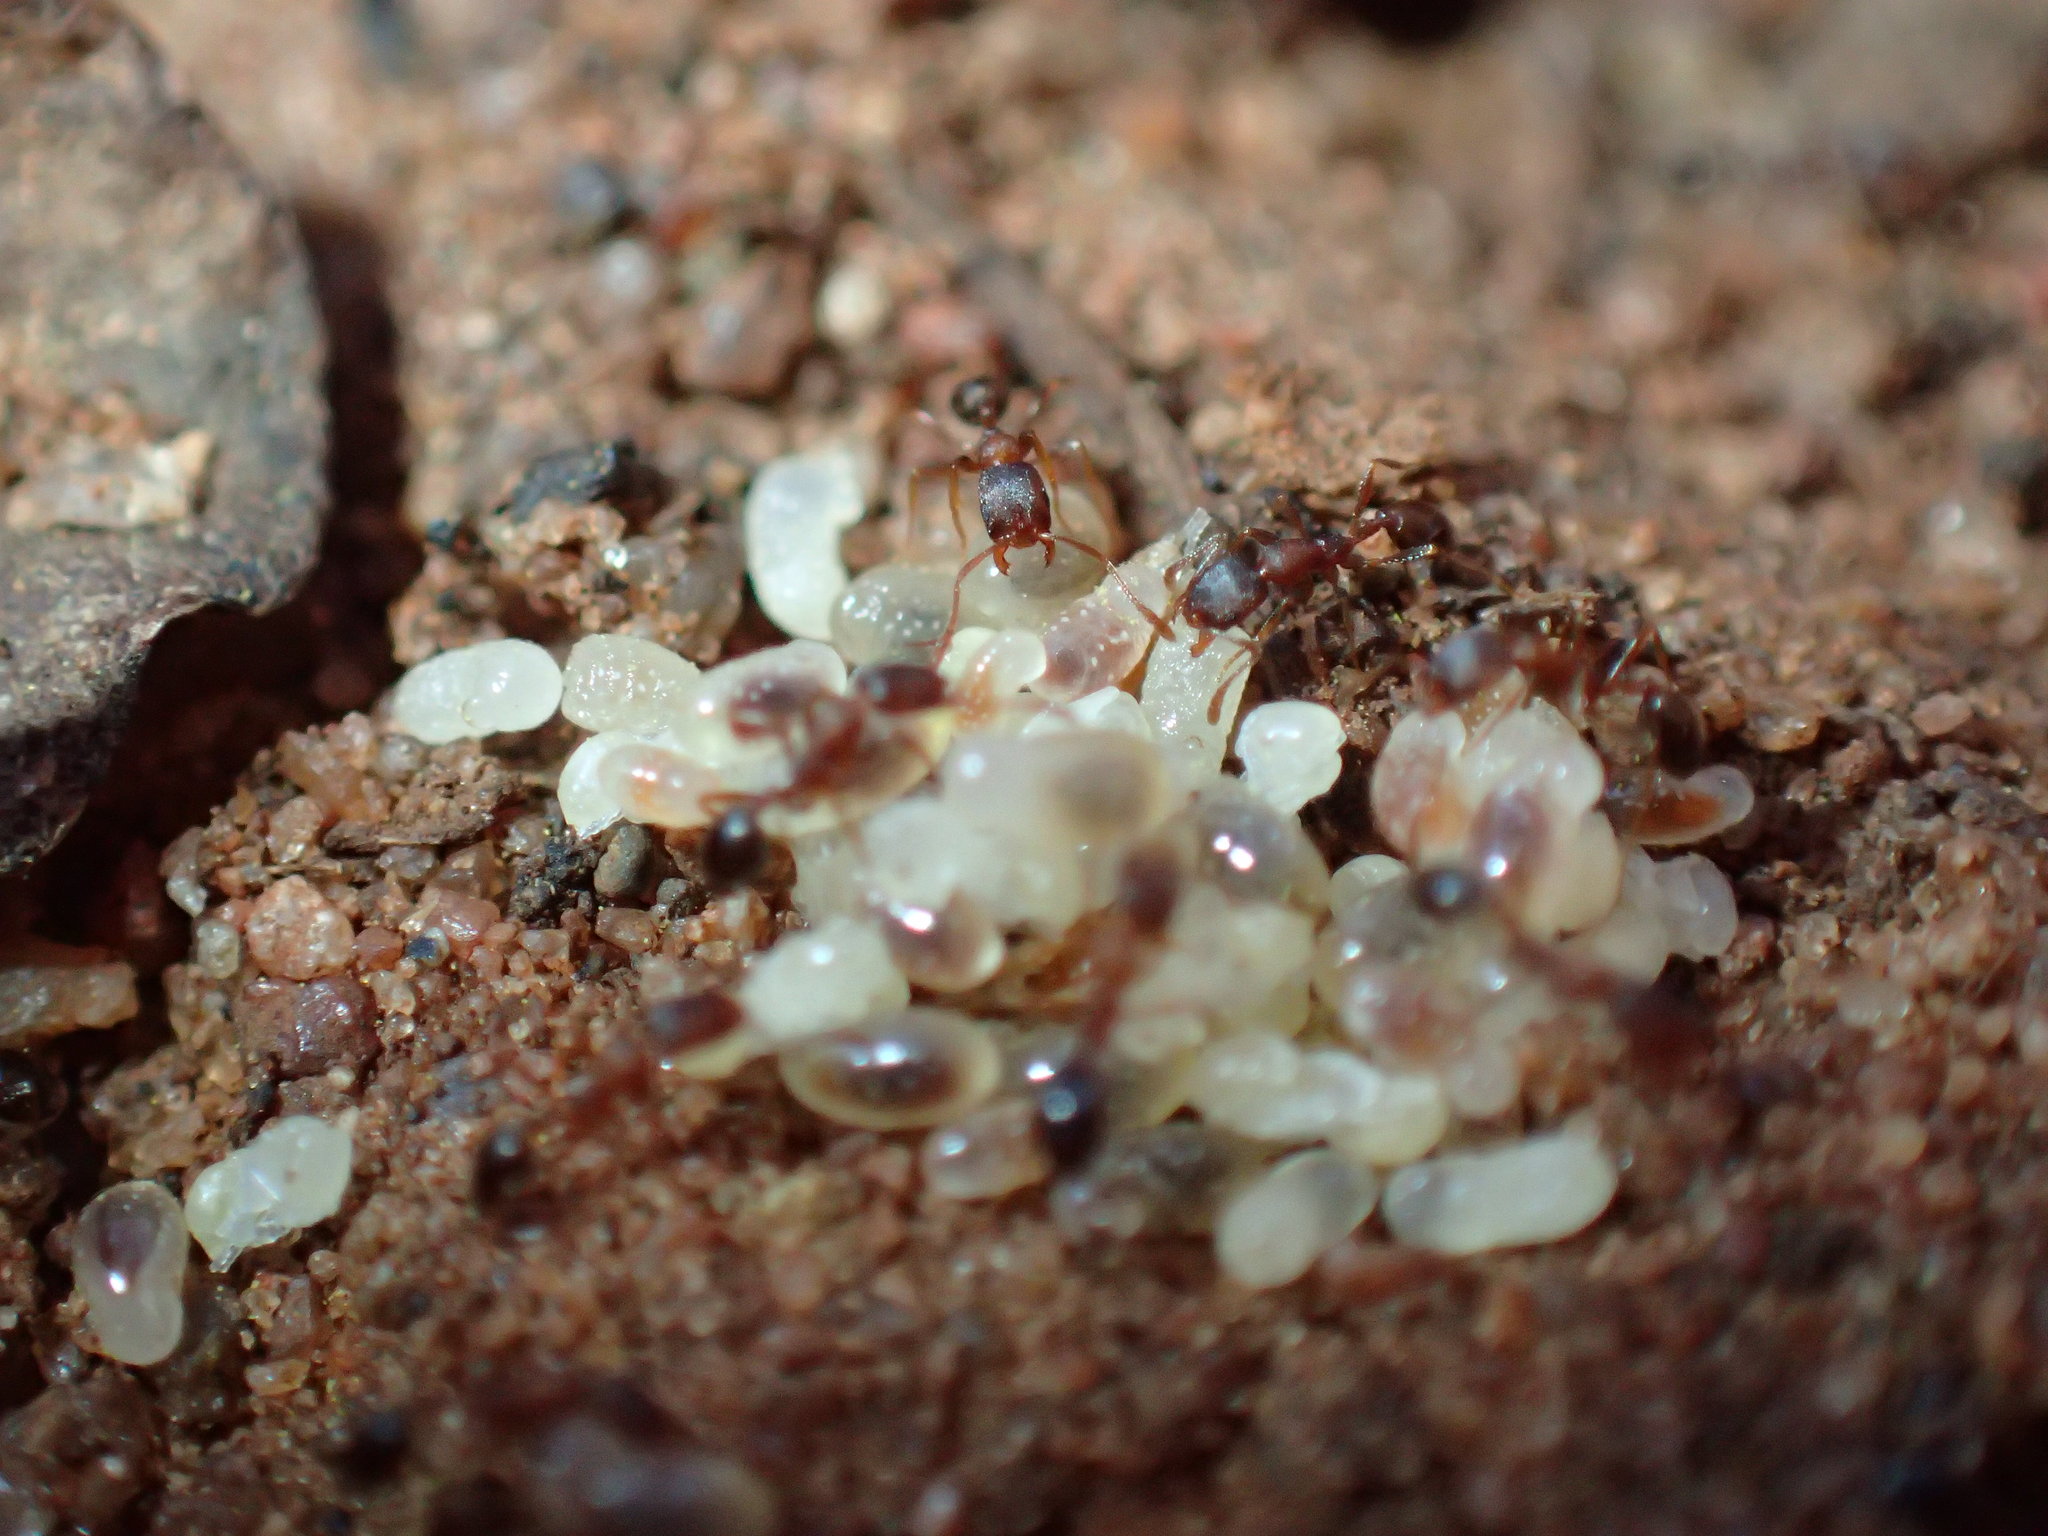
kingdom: Animalia
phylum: Arthropoda
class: Insecta
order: Hymenoptera
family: Formicidae
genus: Monomorium
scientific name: Monomorium delagoense
